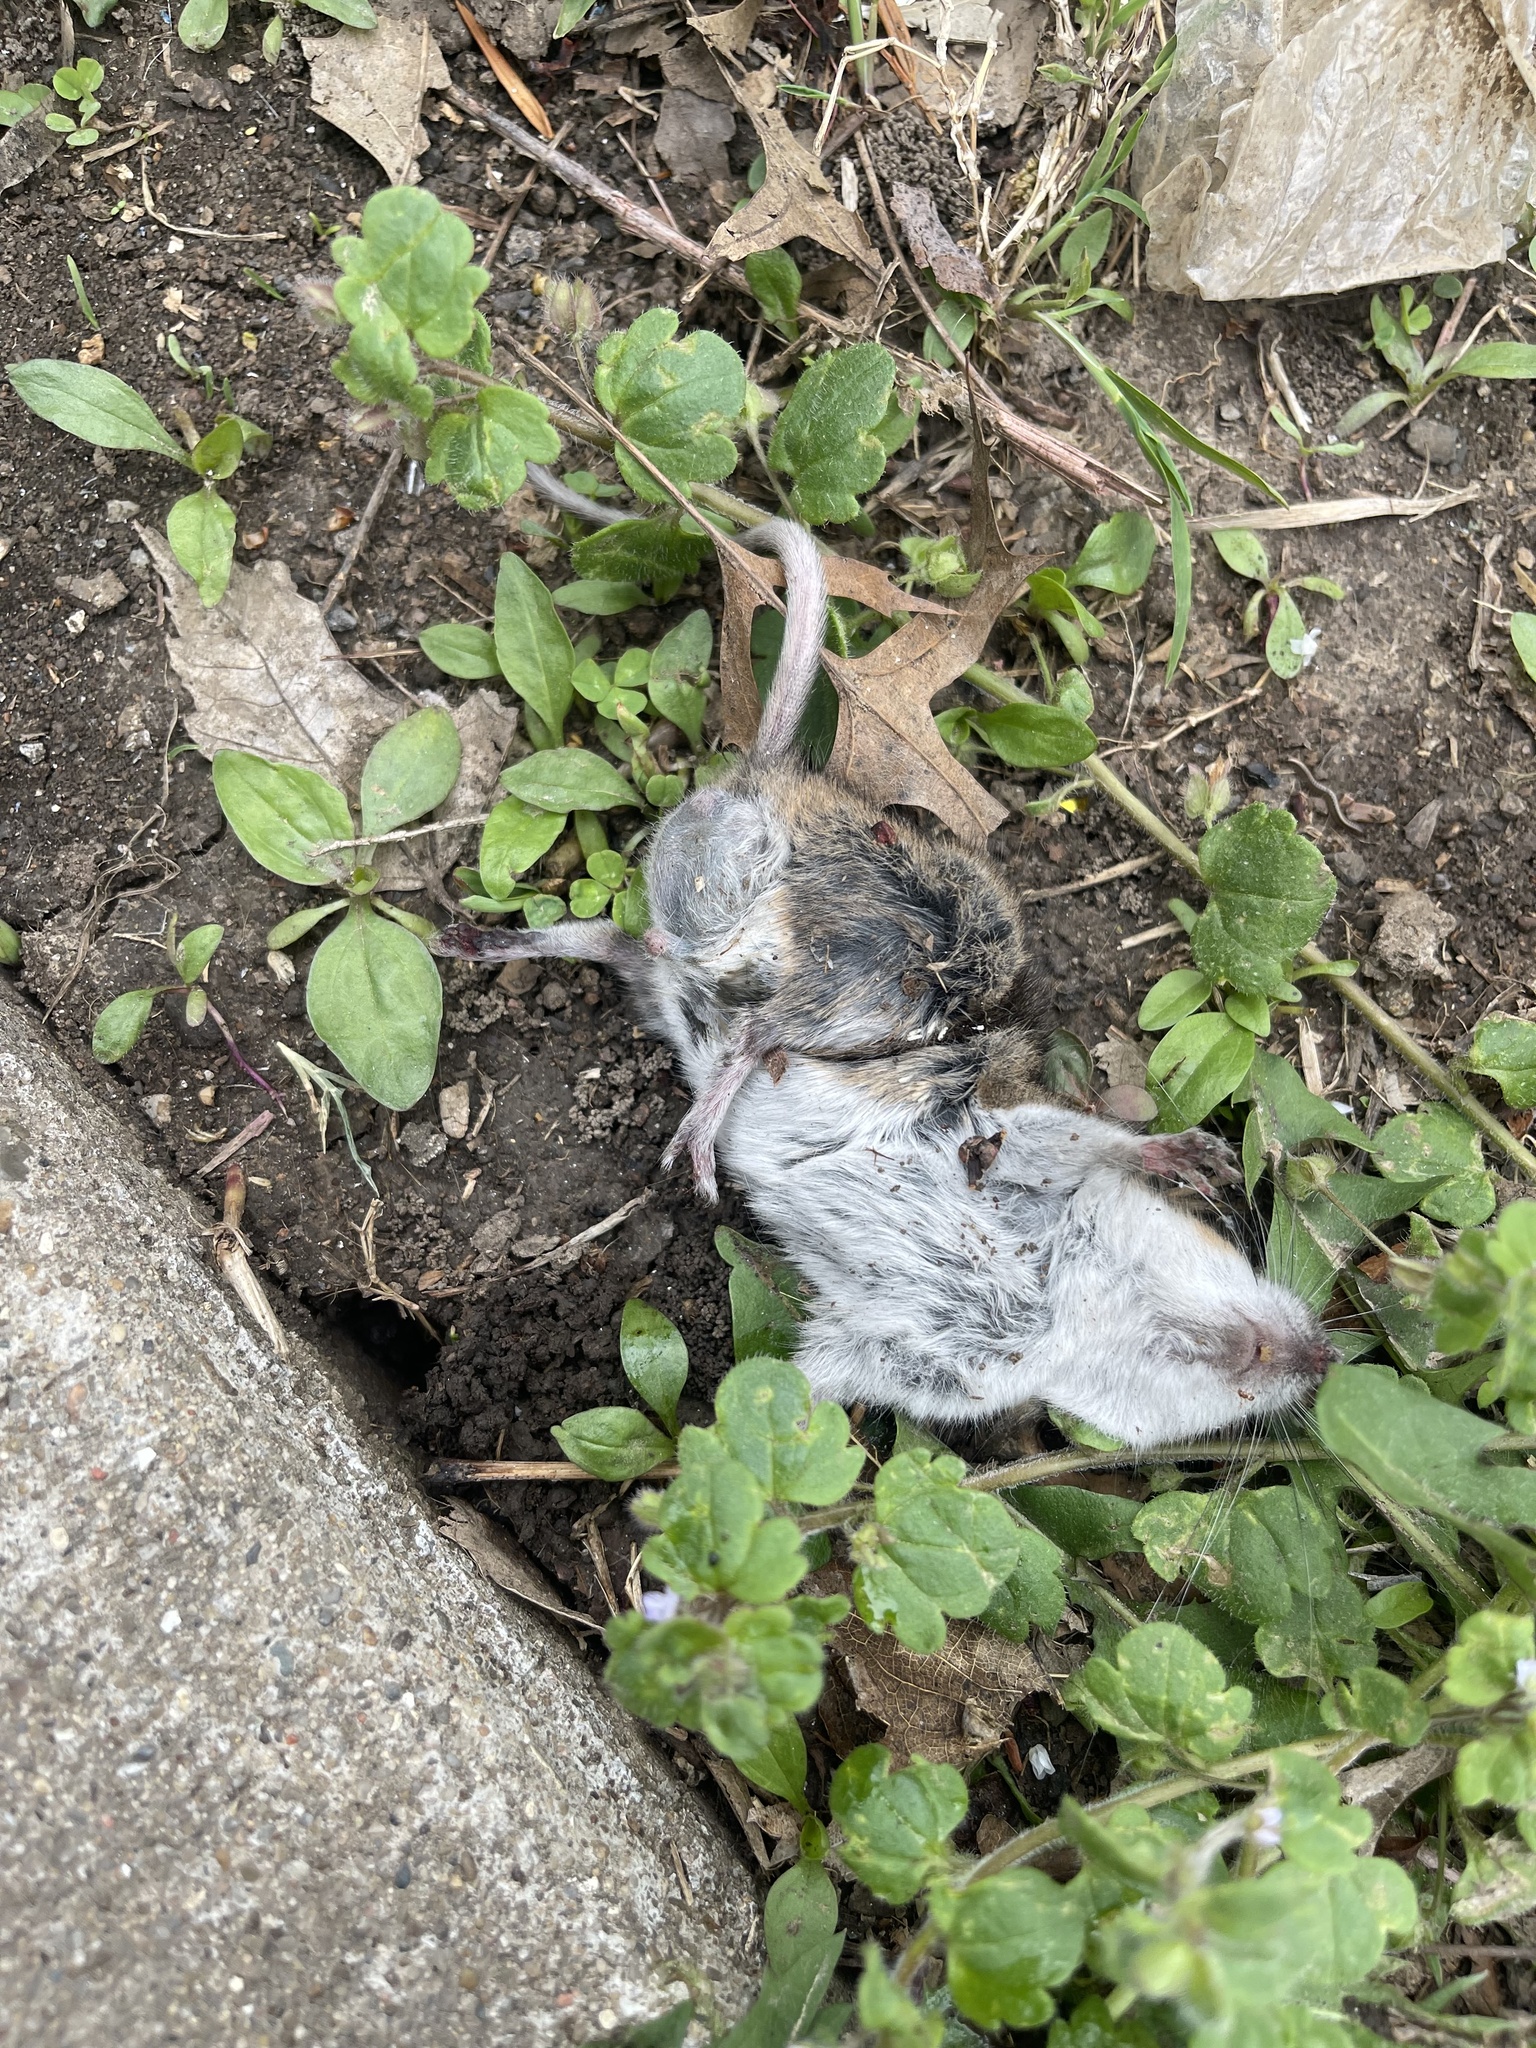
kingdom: Animalia
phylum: Chordata
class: Mammalia
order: Rodentia
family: Cricetidae
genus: Peromyscus
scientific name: Peromyscus leucopus
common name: White-footed deermouse
